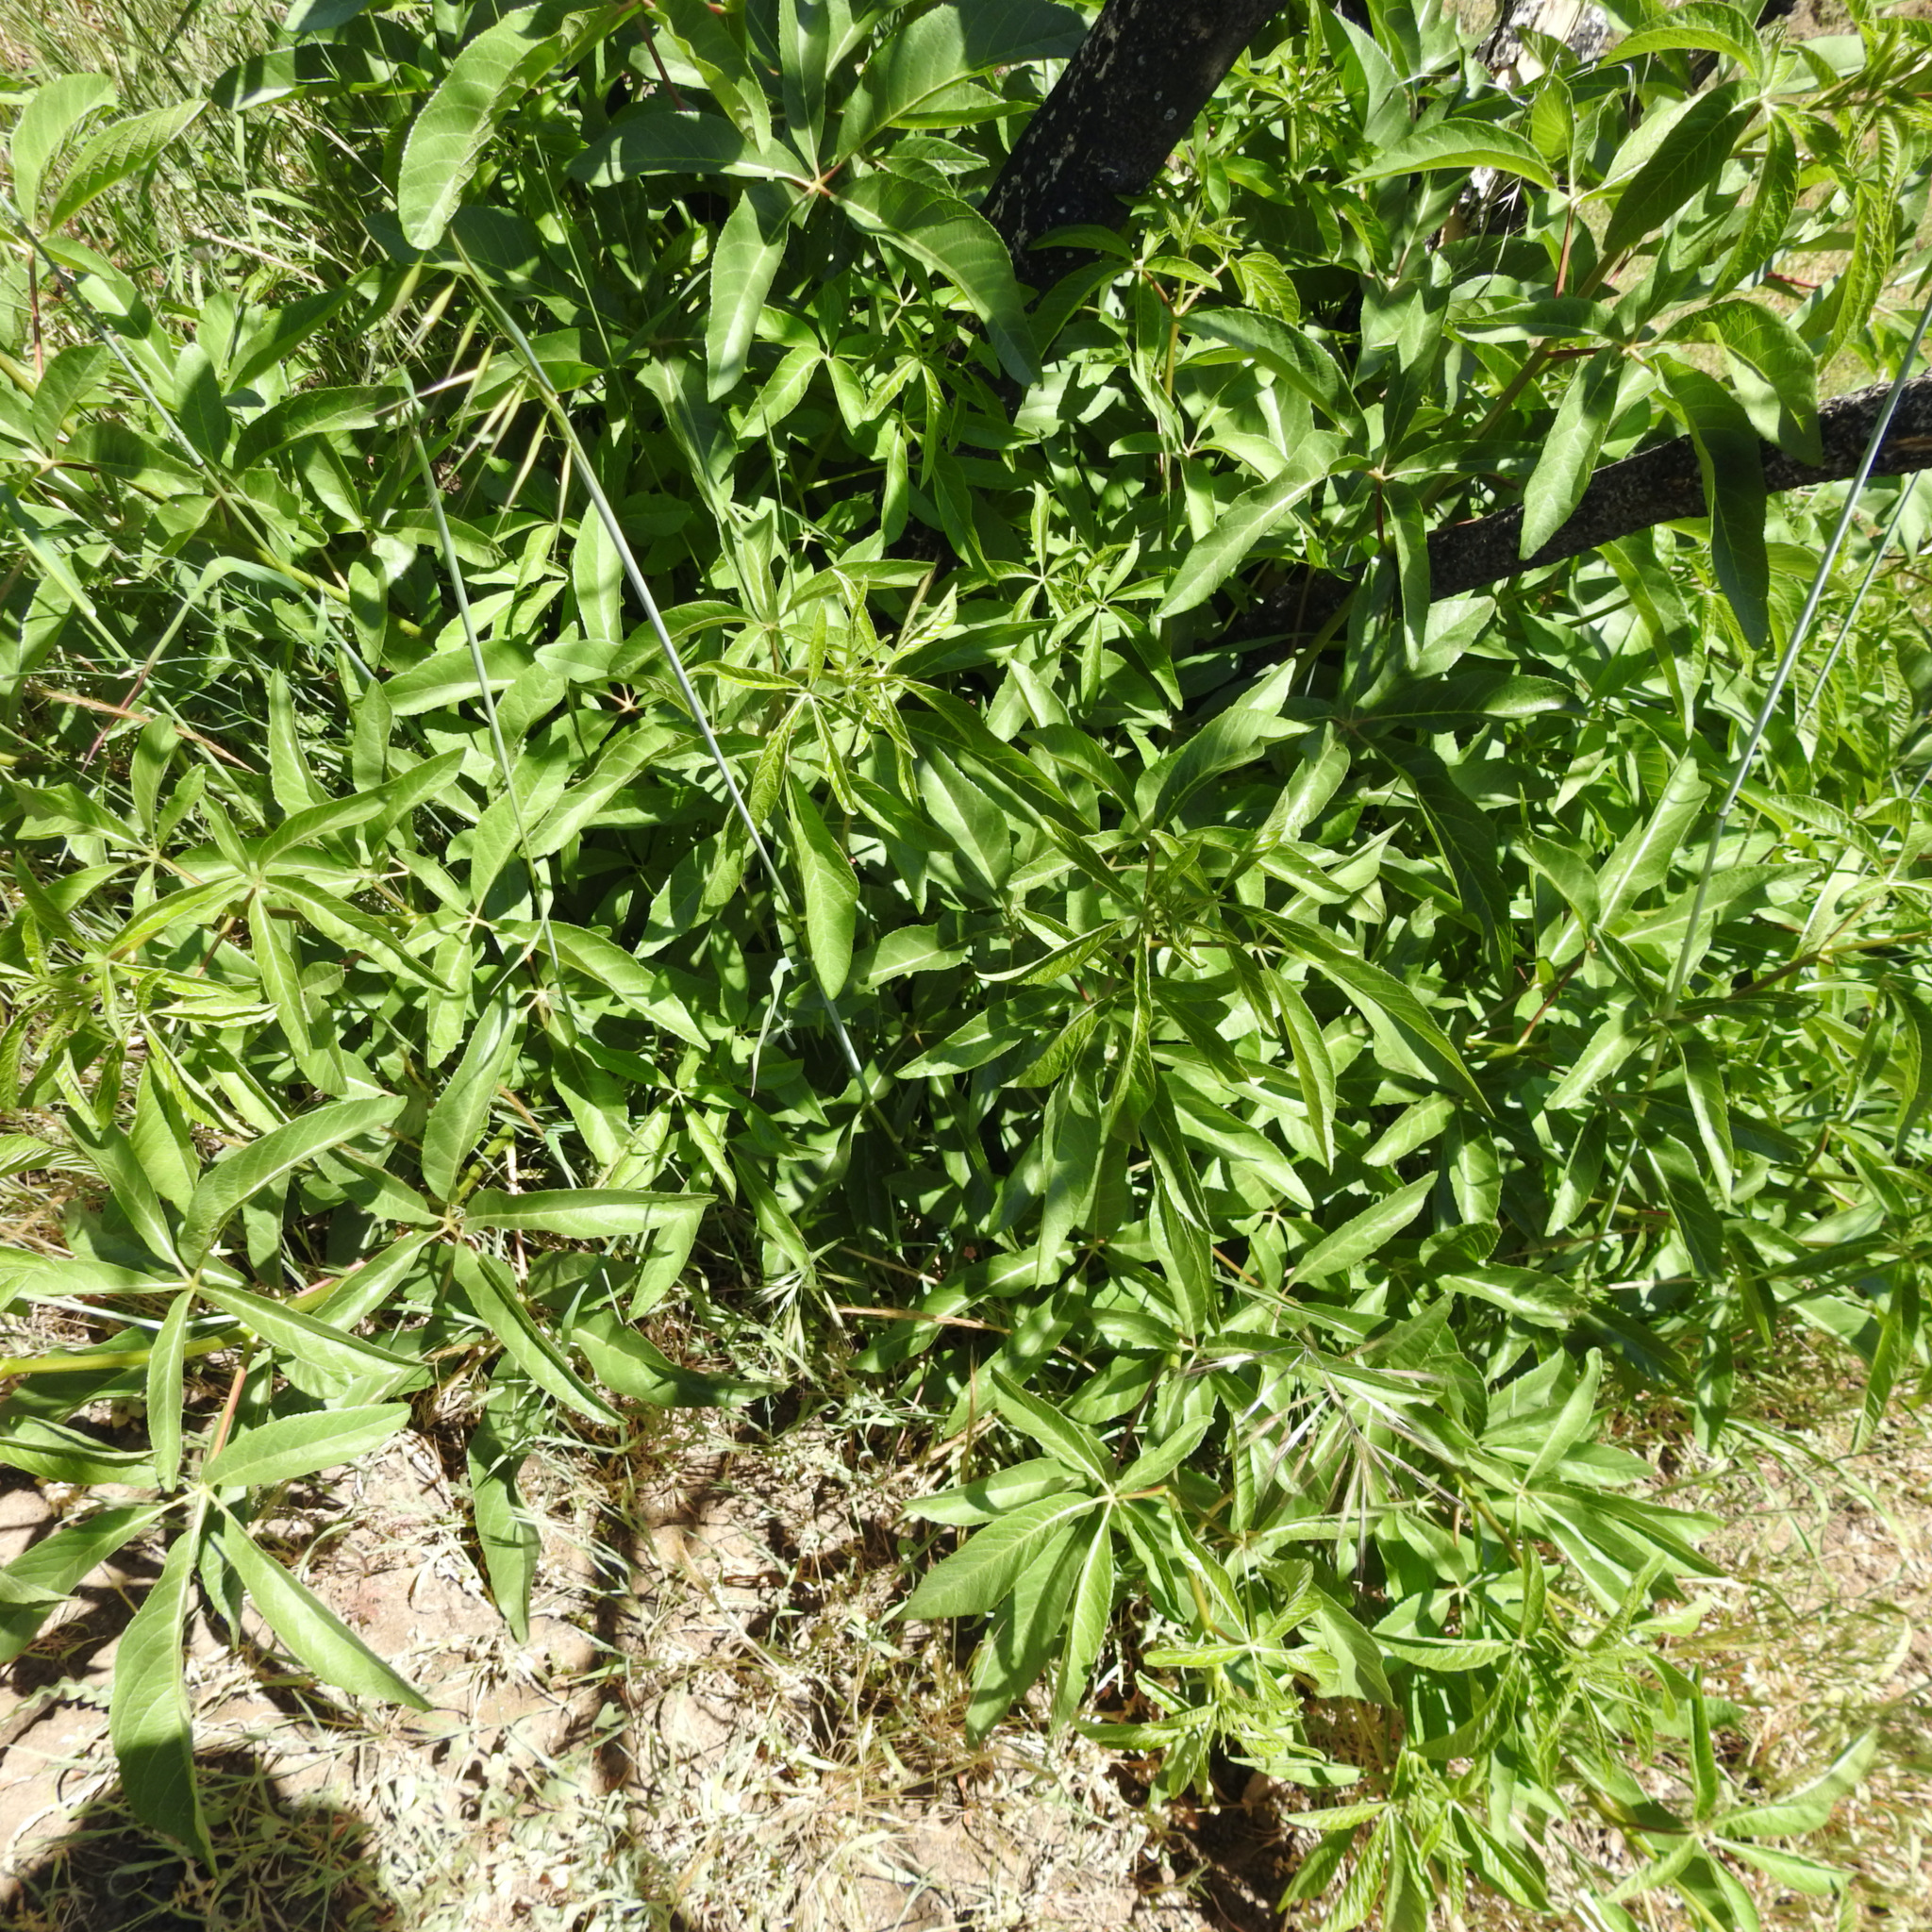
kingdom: Plantae
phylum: Tracheophyta
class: Magnoliopsida
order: Sapindales
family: Sapindaceae
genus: Aesculus
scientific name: Aesculus californica
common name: California buckeye
